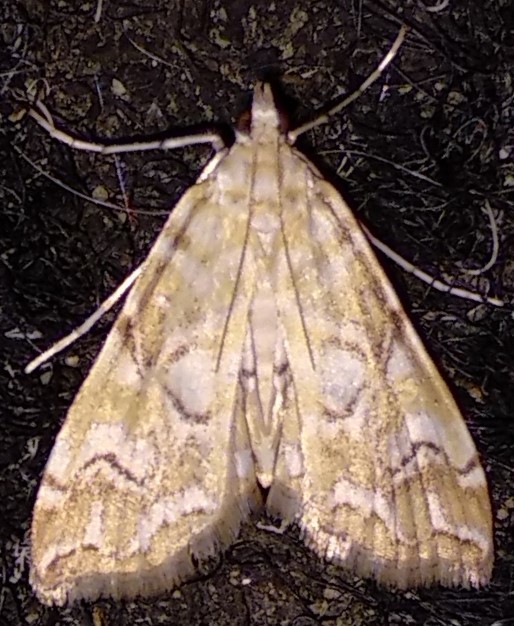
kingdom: Animalia
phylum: Arthropoda
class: Insecta
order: Lepidoptera
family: Crambidae
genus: Elophila
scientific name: Elophila icciusalis
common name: Pondside pyralid moth
